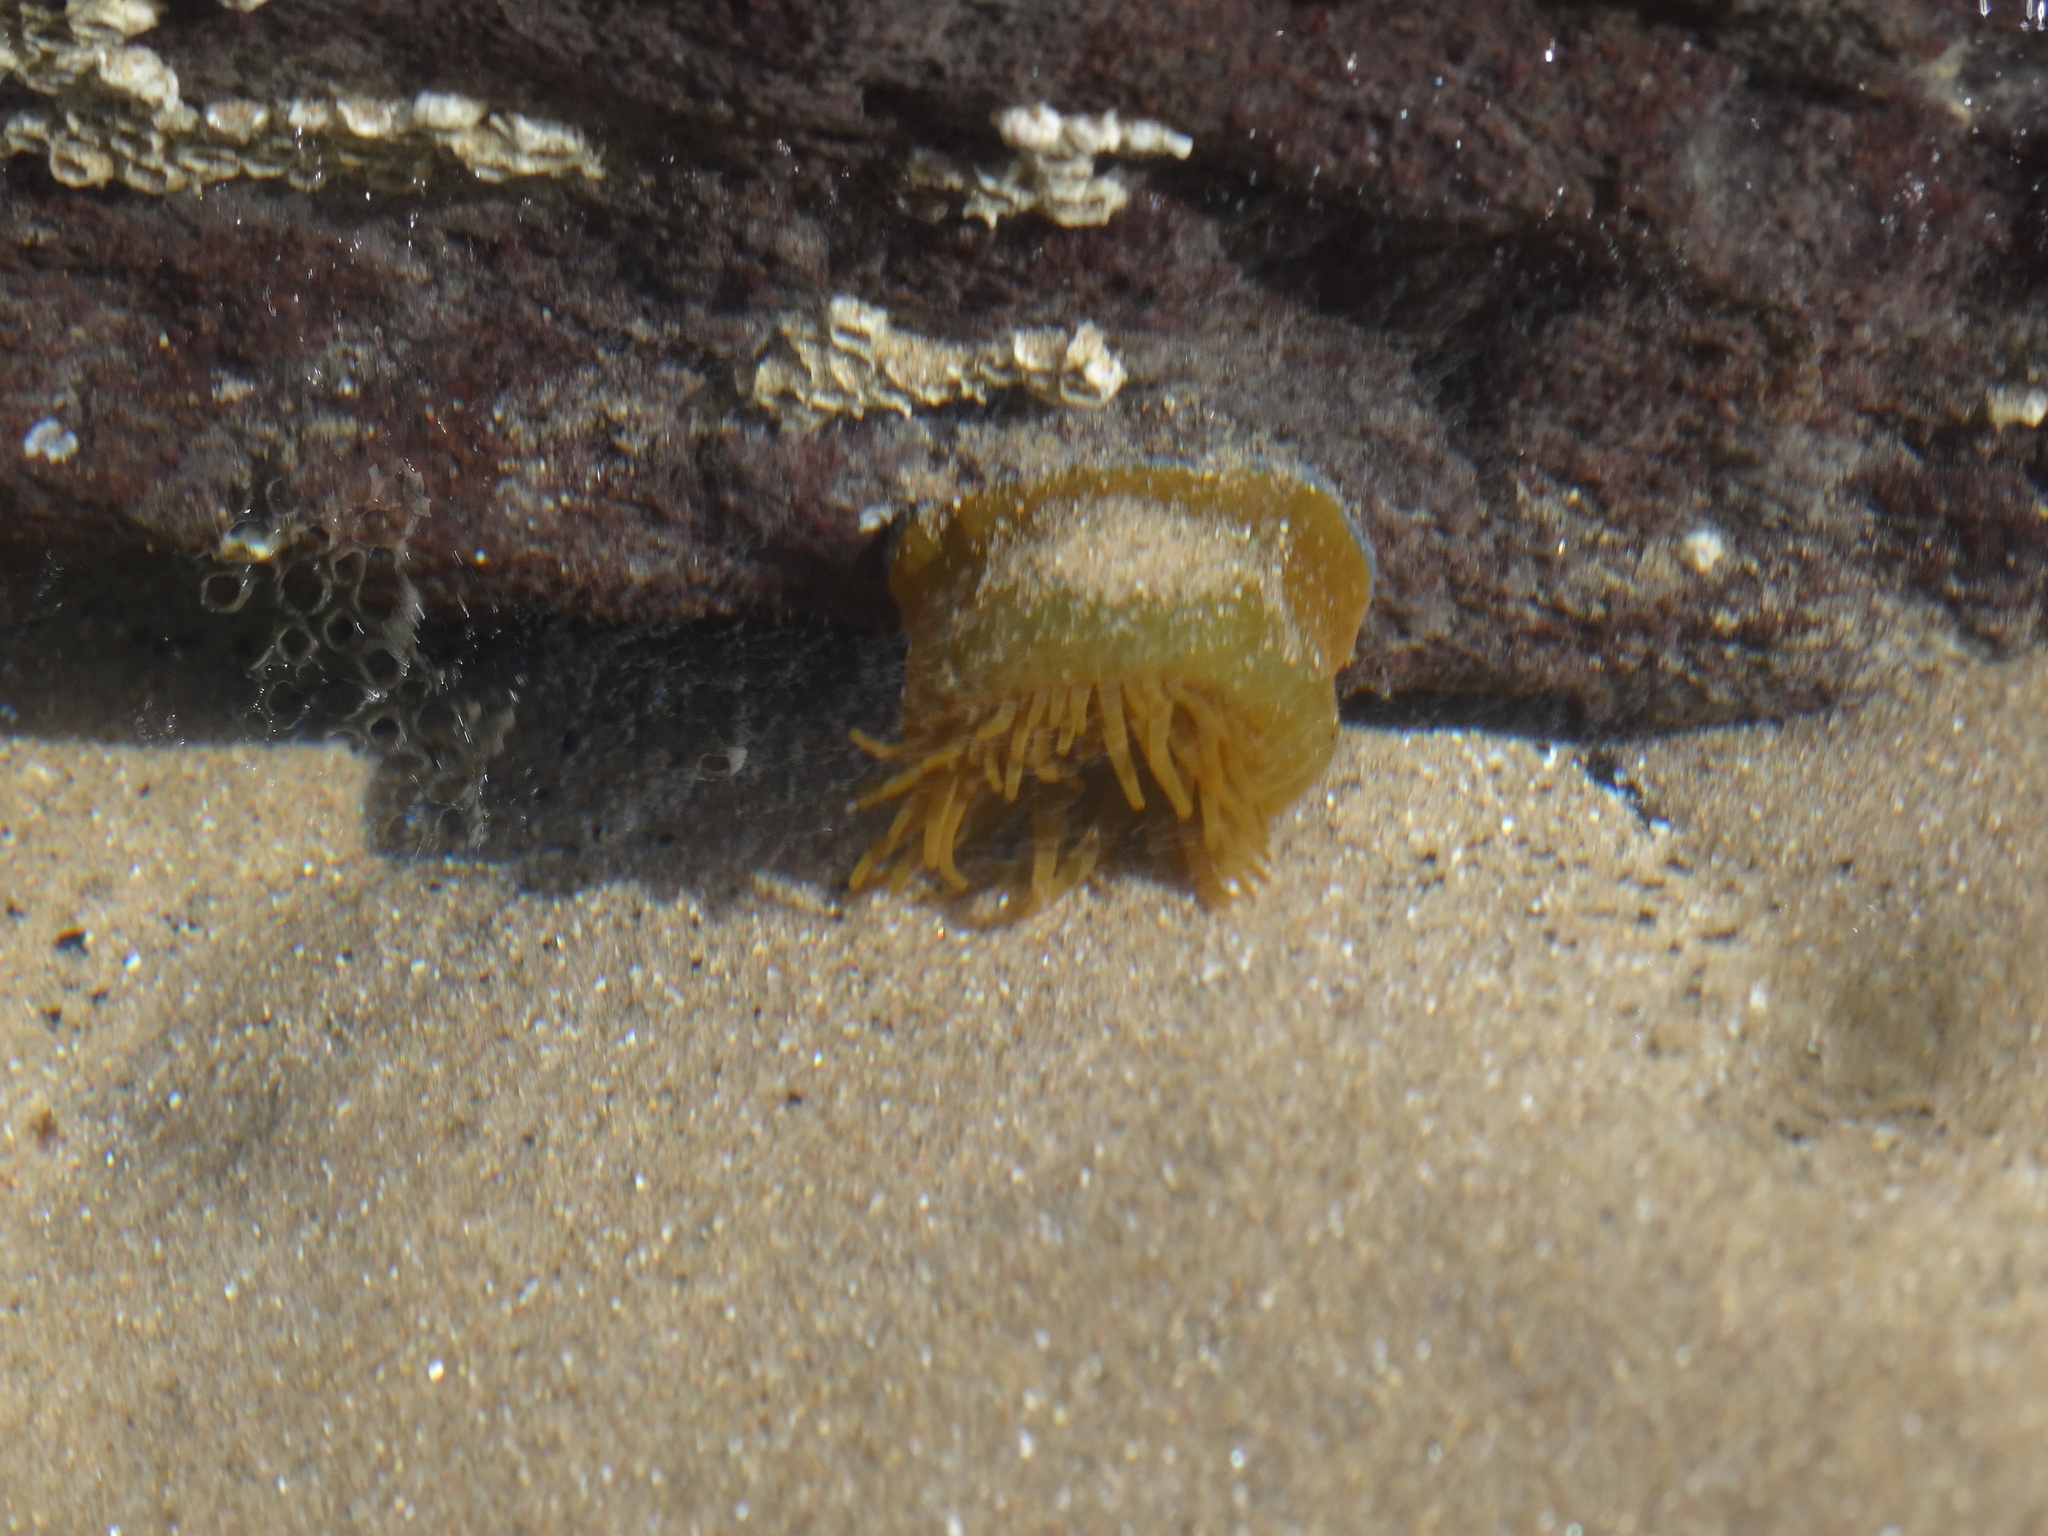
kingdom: Animalia
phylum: Cnidaria
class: Anthozoa
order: Actiniaria
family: Actiniidae
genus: Actinia
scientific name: Actinia equina
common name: Beadlet anemone
